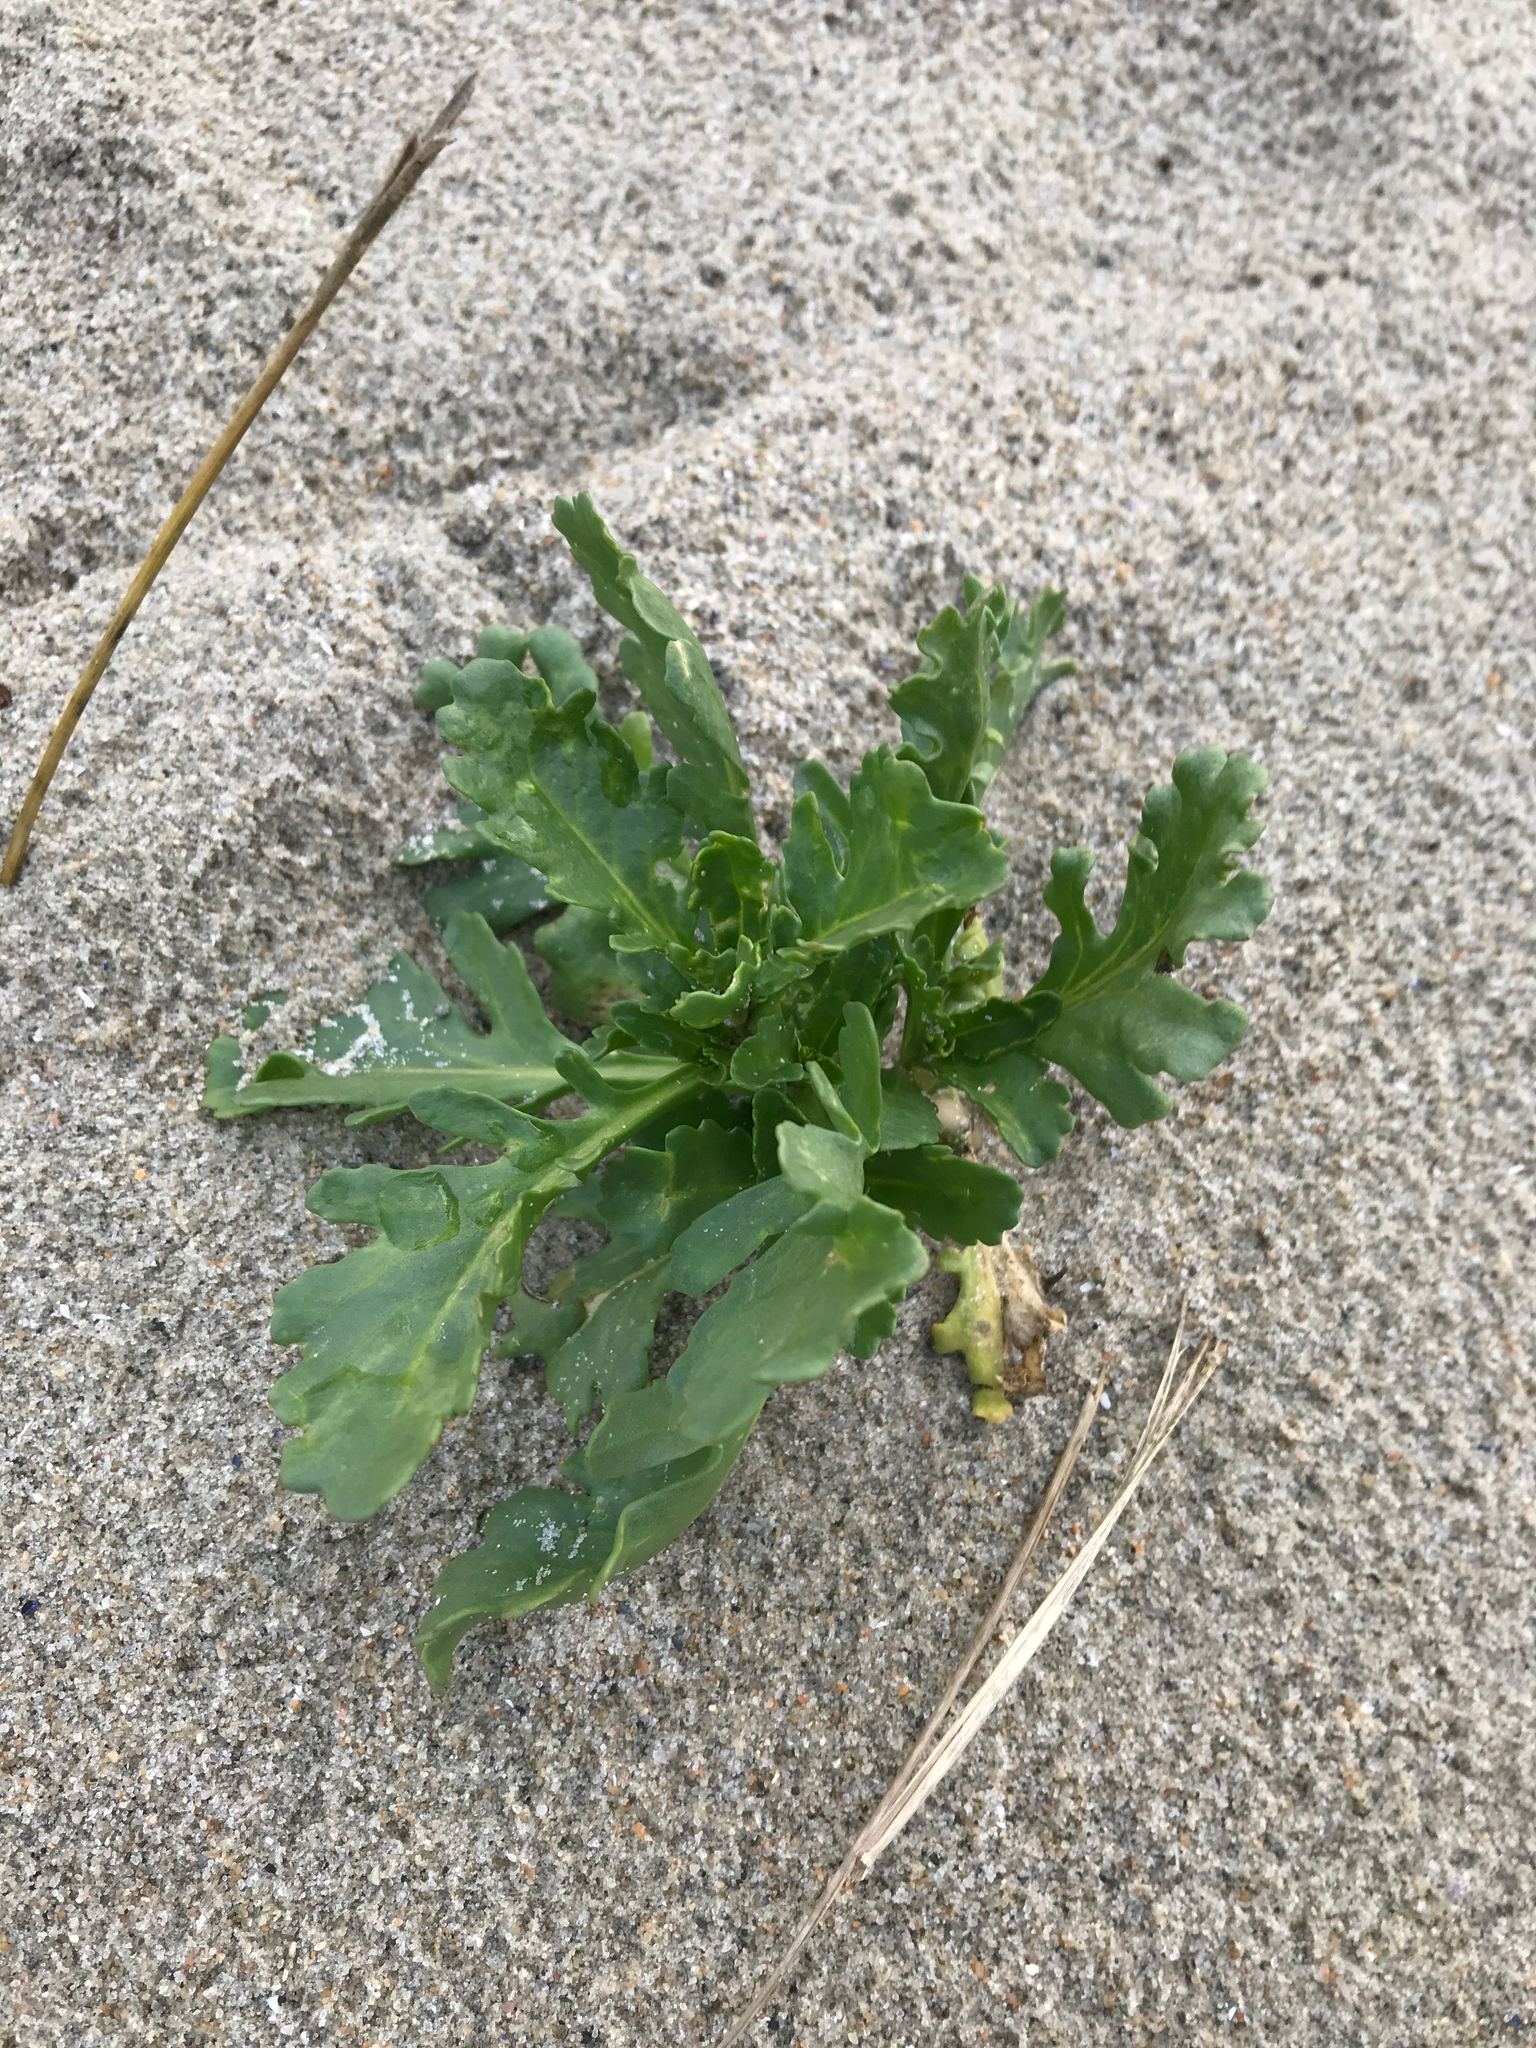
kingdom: Plantae
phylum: Tracheophyta
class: Magnoliopsida
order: Brassicales
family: Brassicaceae
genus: Cakile
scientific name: Cakile edentula
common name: American sea rocket
